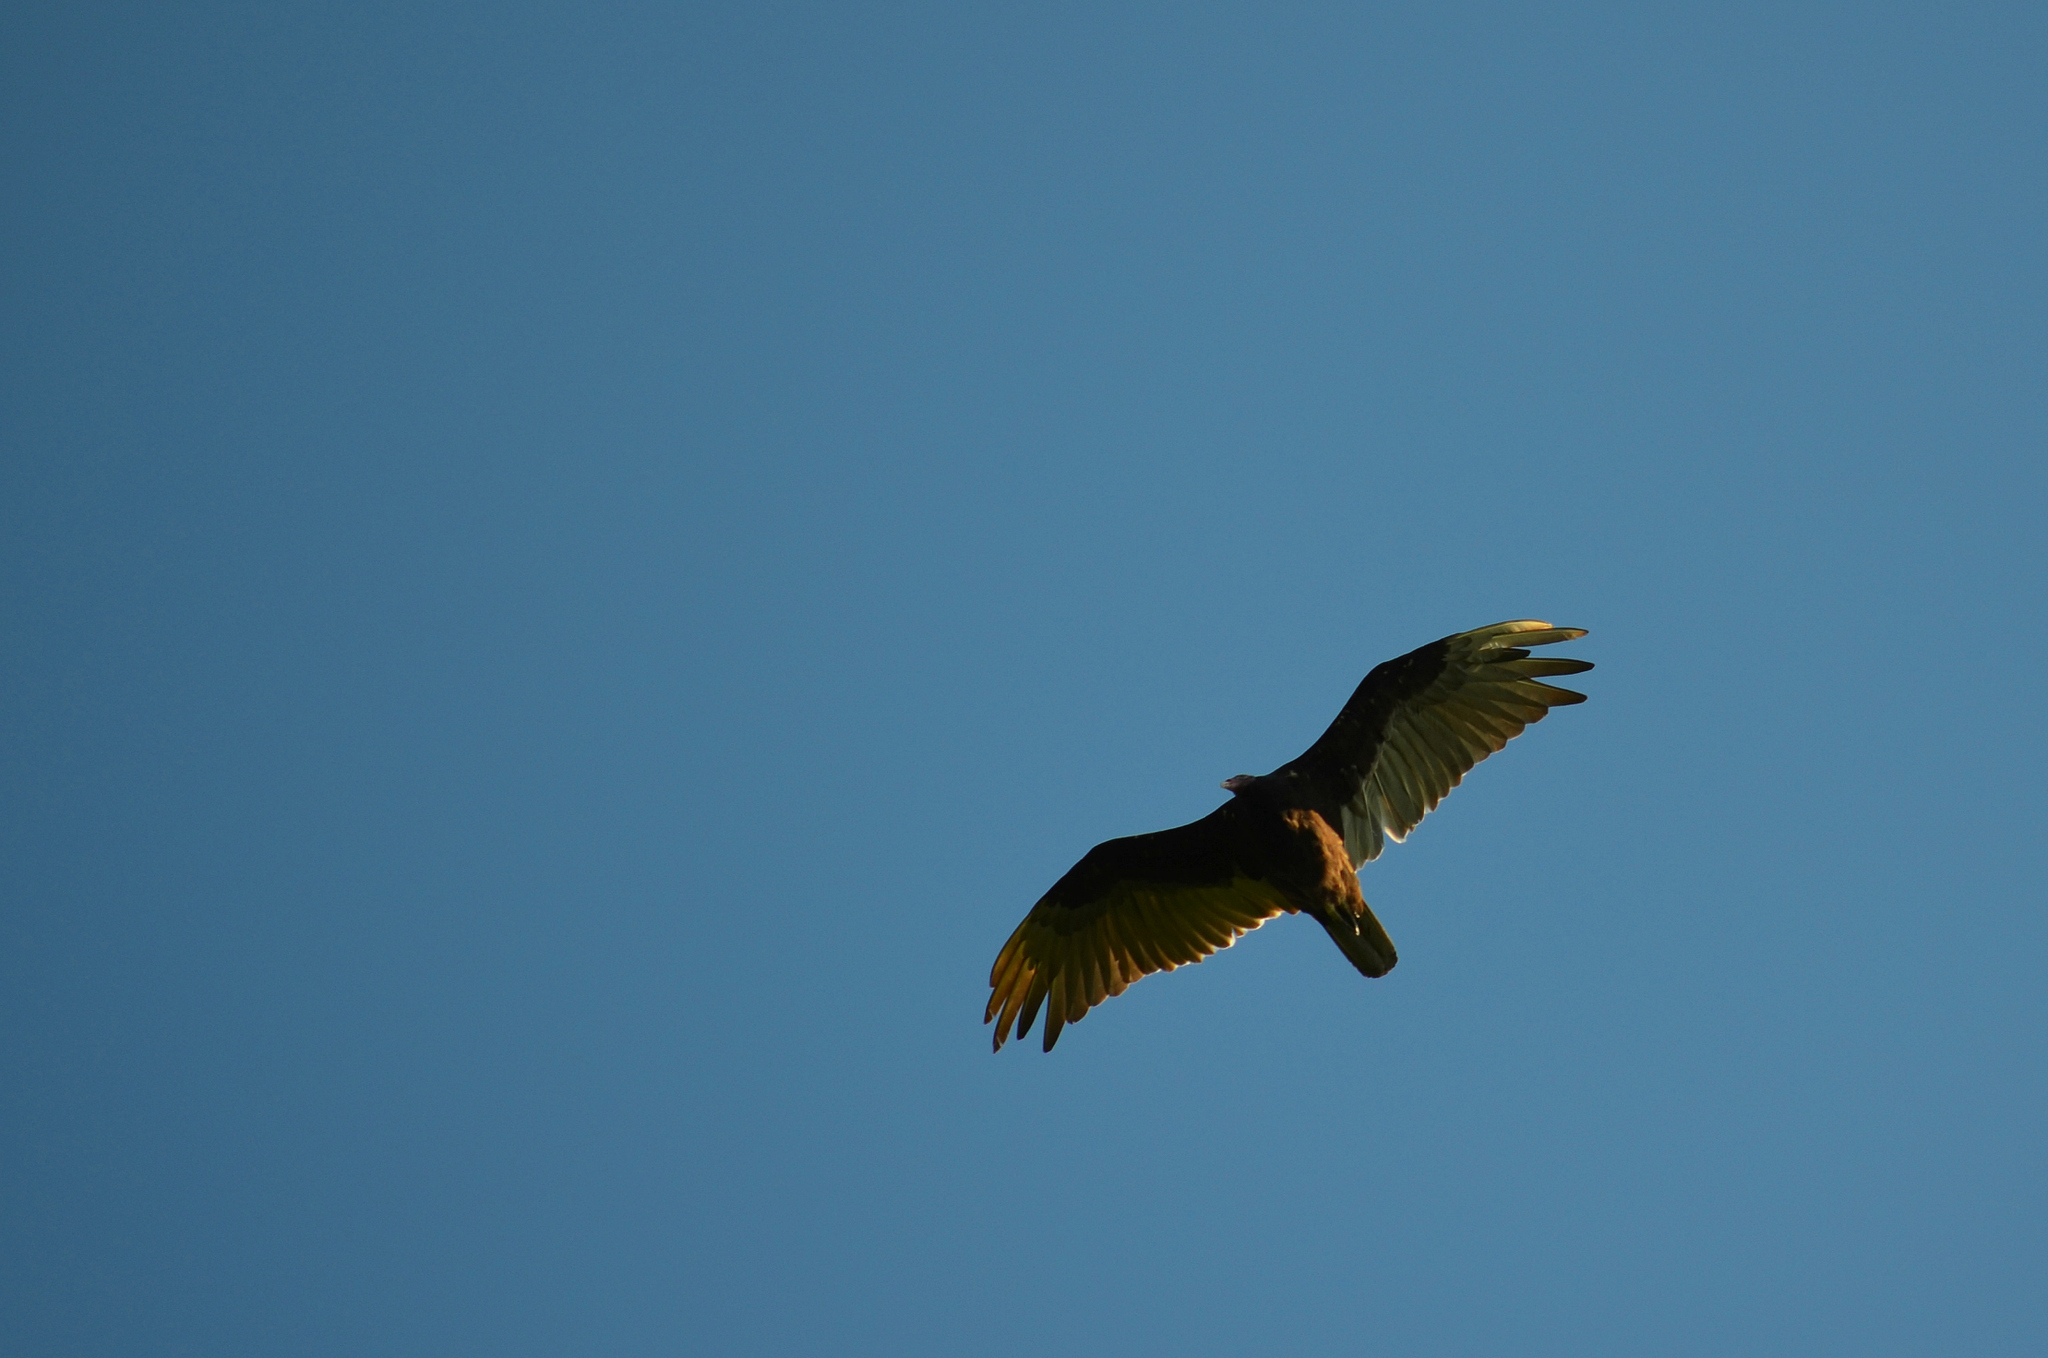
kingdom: Animalia
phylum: Chordata
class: Aves
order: Accipitriformes
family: Cathartidae
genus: Cathartes
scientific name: Cathartes aura
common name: Turkey vulture
